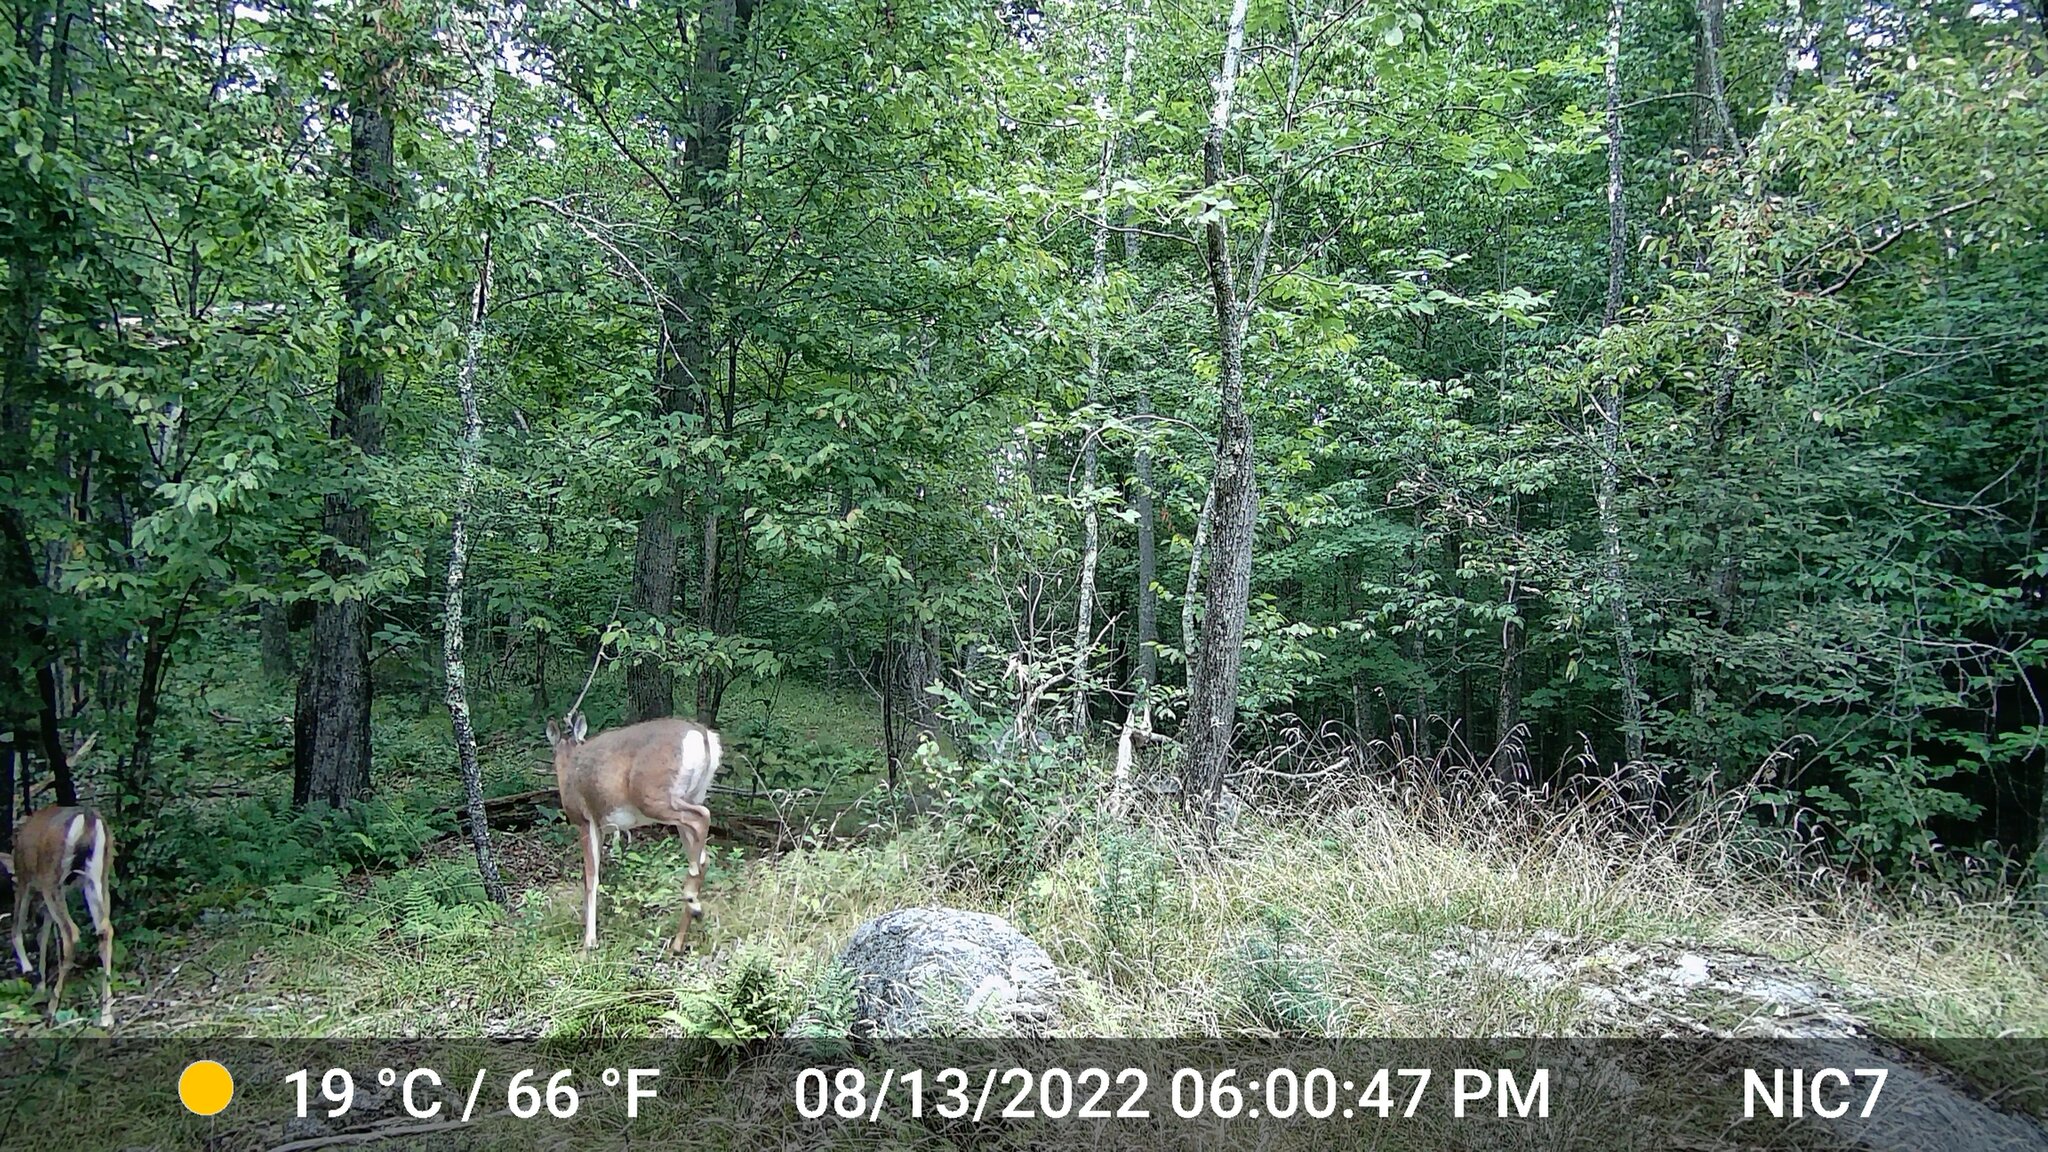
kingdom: Animalia
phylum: Chordata
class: Mammalia
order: Artiodactyla
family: Cervidae
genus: Odocoileus
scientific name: Odocoileus virginianus
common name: White-tailed deer
